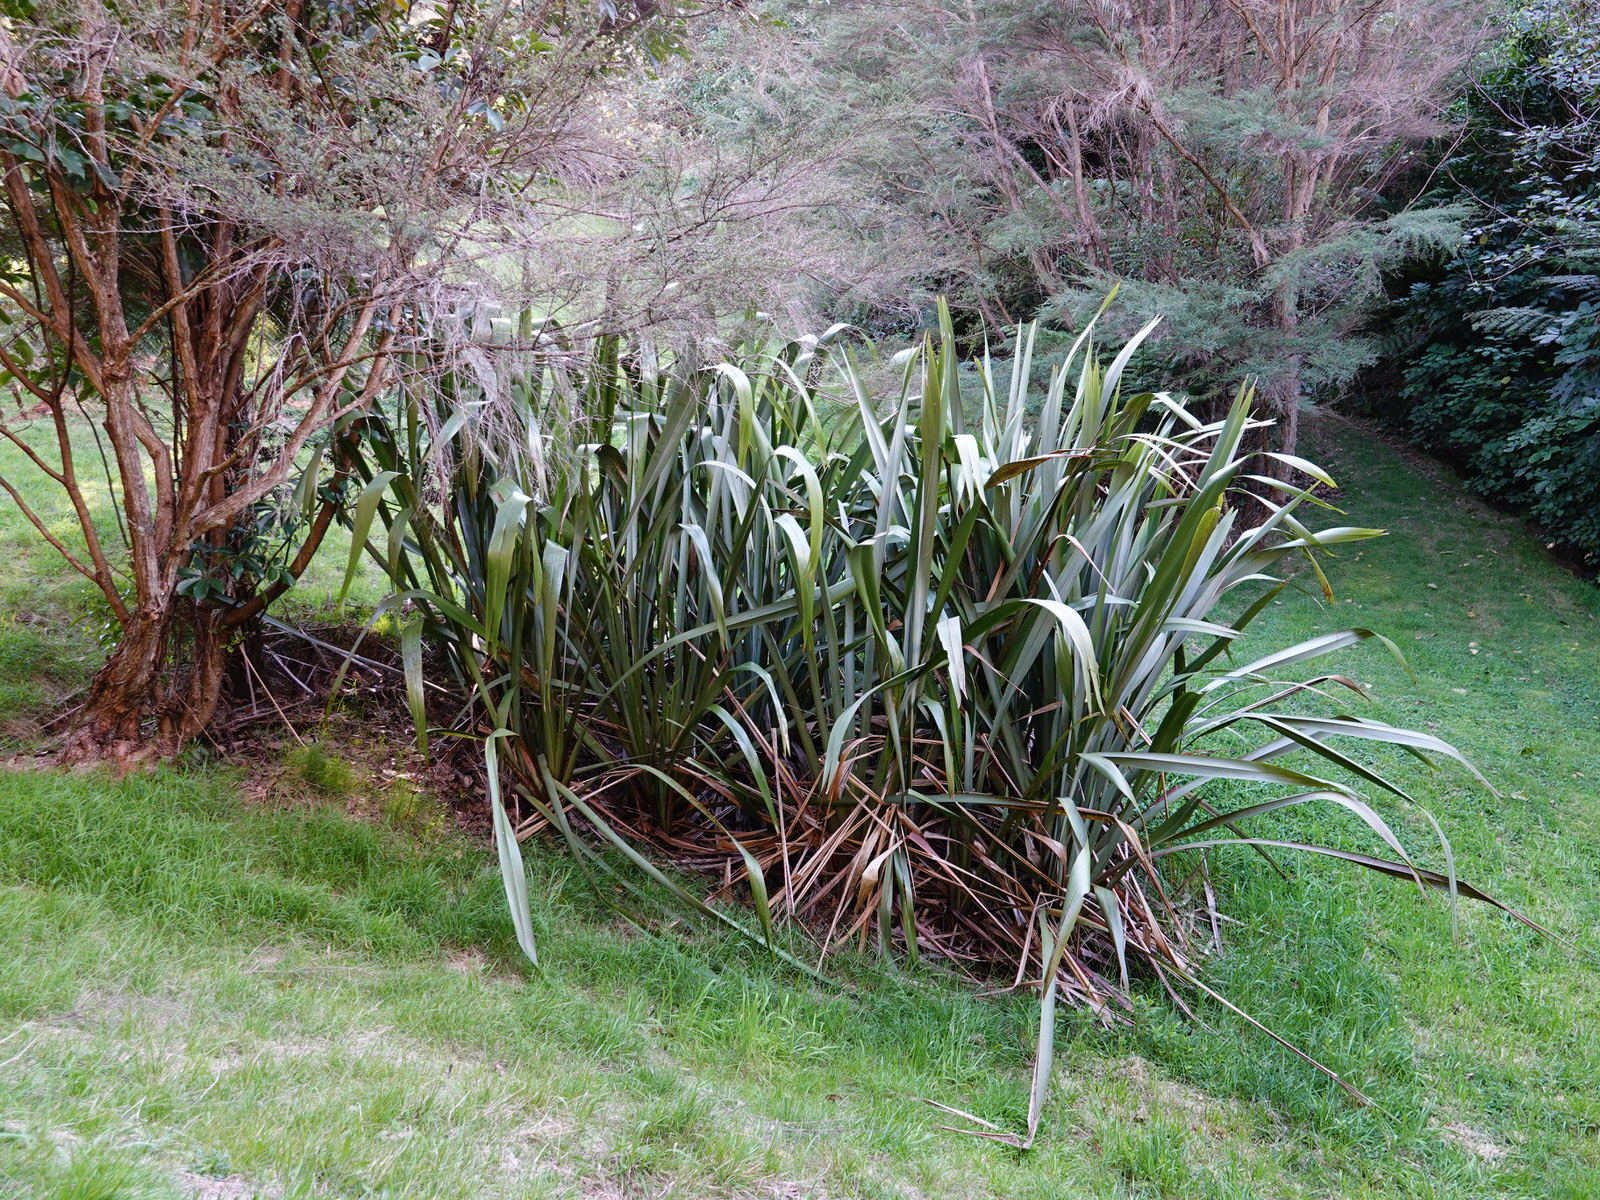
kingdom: Plantae
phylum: Tracheophyta
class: Liliopsida
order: Asparagales
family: Asphodelaceae
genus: Phormium
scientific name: Phormium tenax
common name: New zealand flax
